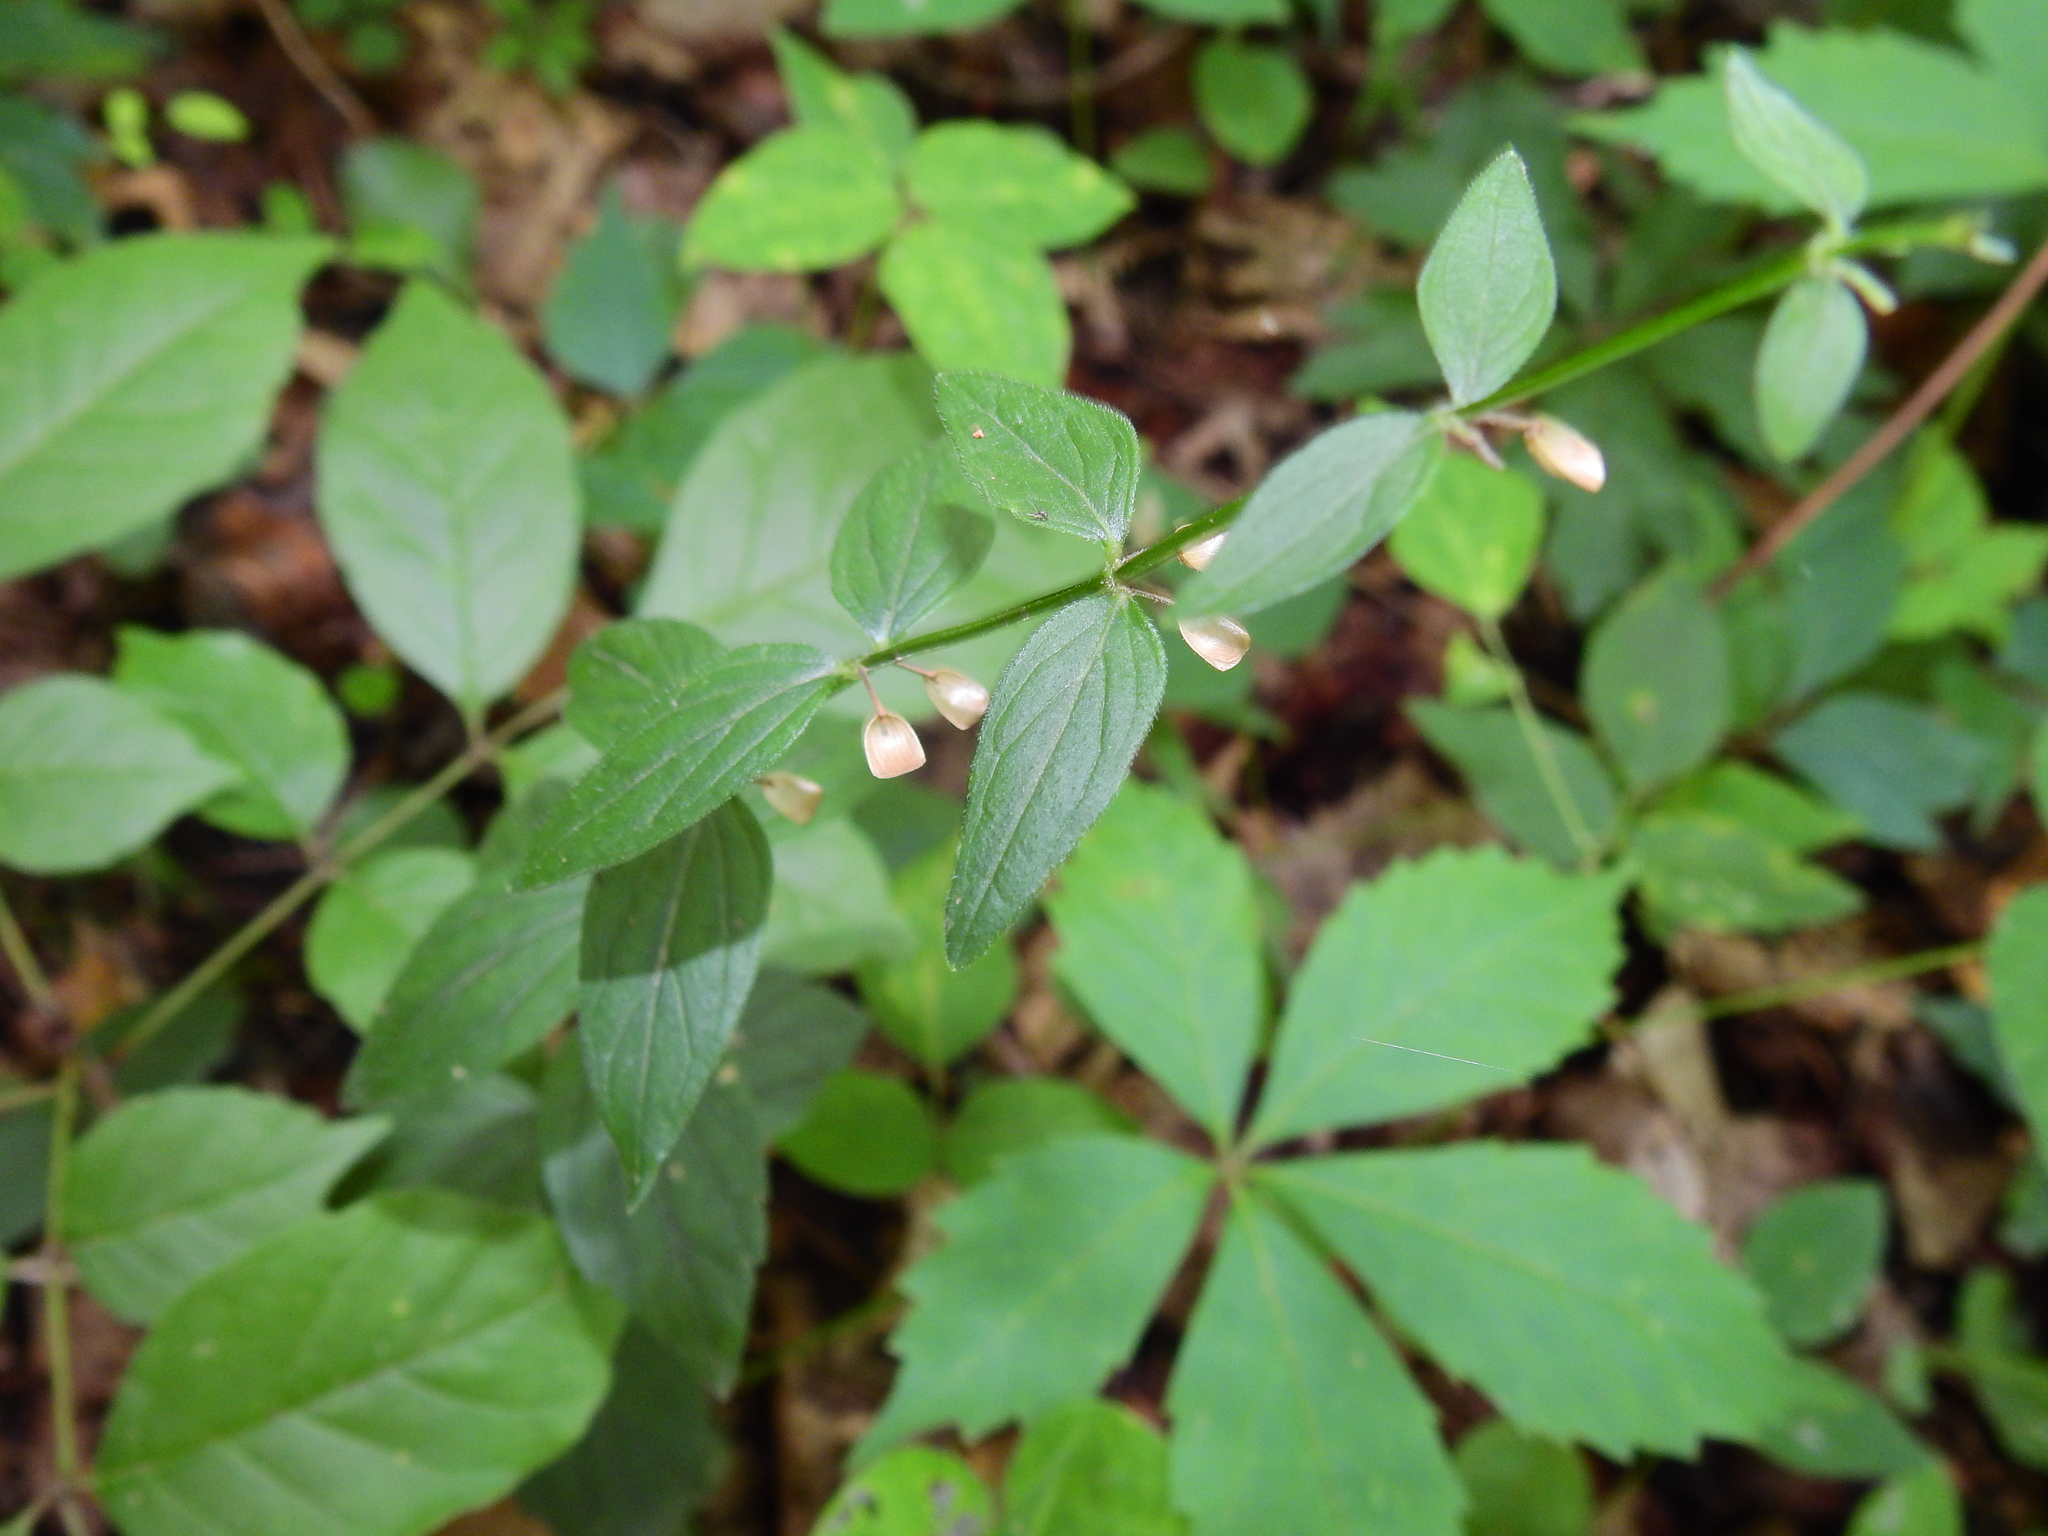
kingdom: Plantae
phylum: Tracheophyta
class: Magnoliopsida
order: Lamiales
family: Lamiaceae
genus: Scutellaria
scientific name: Scutellaria parvula
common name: Little scullcap
